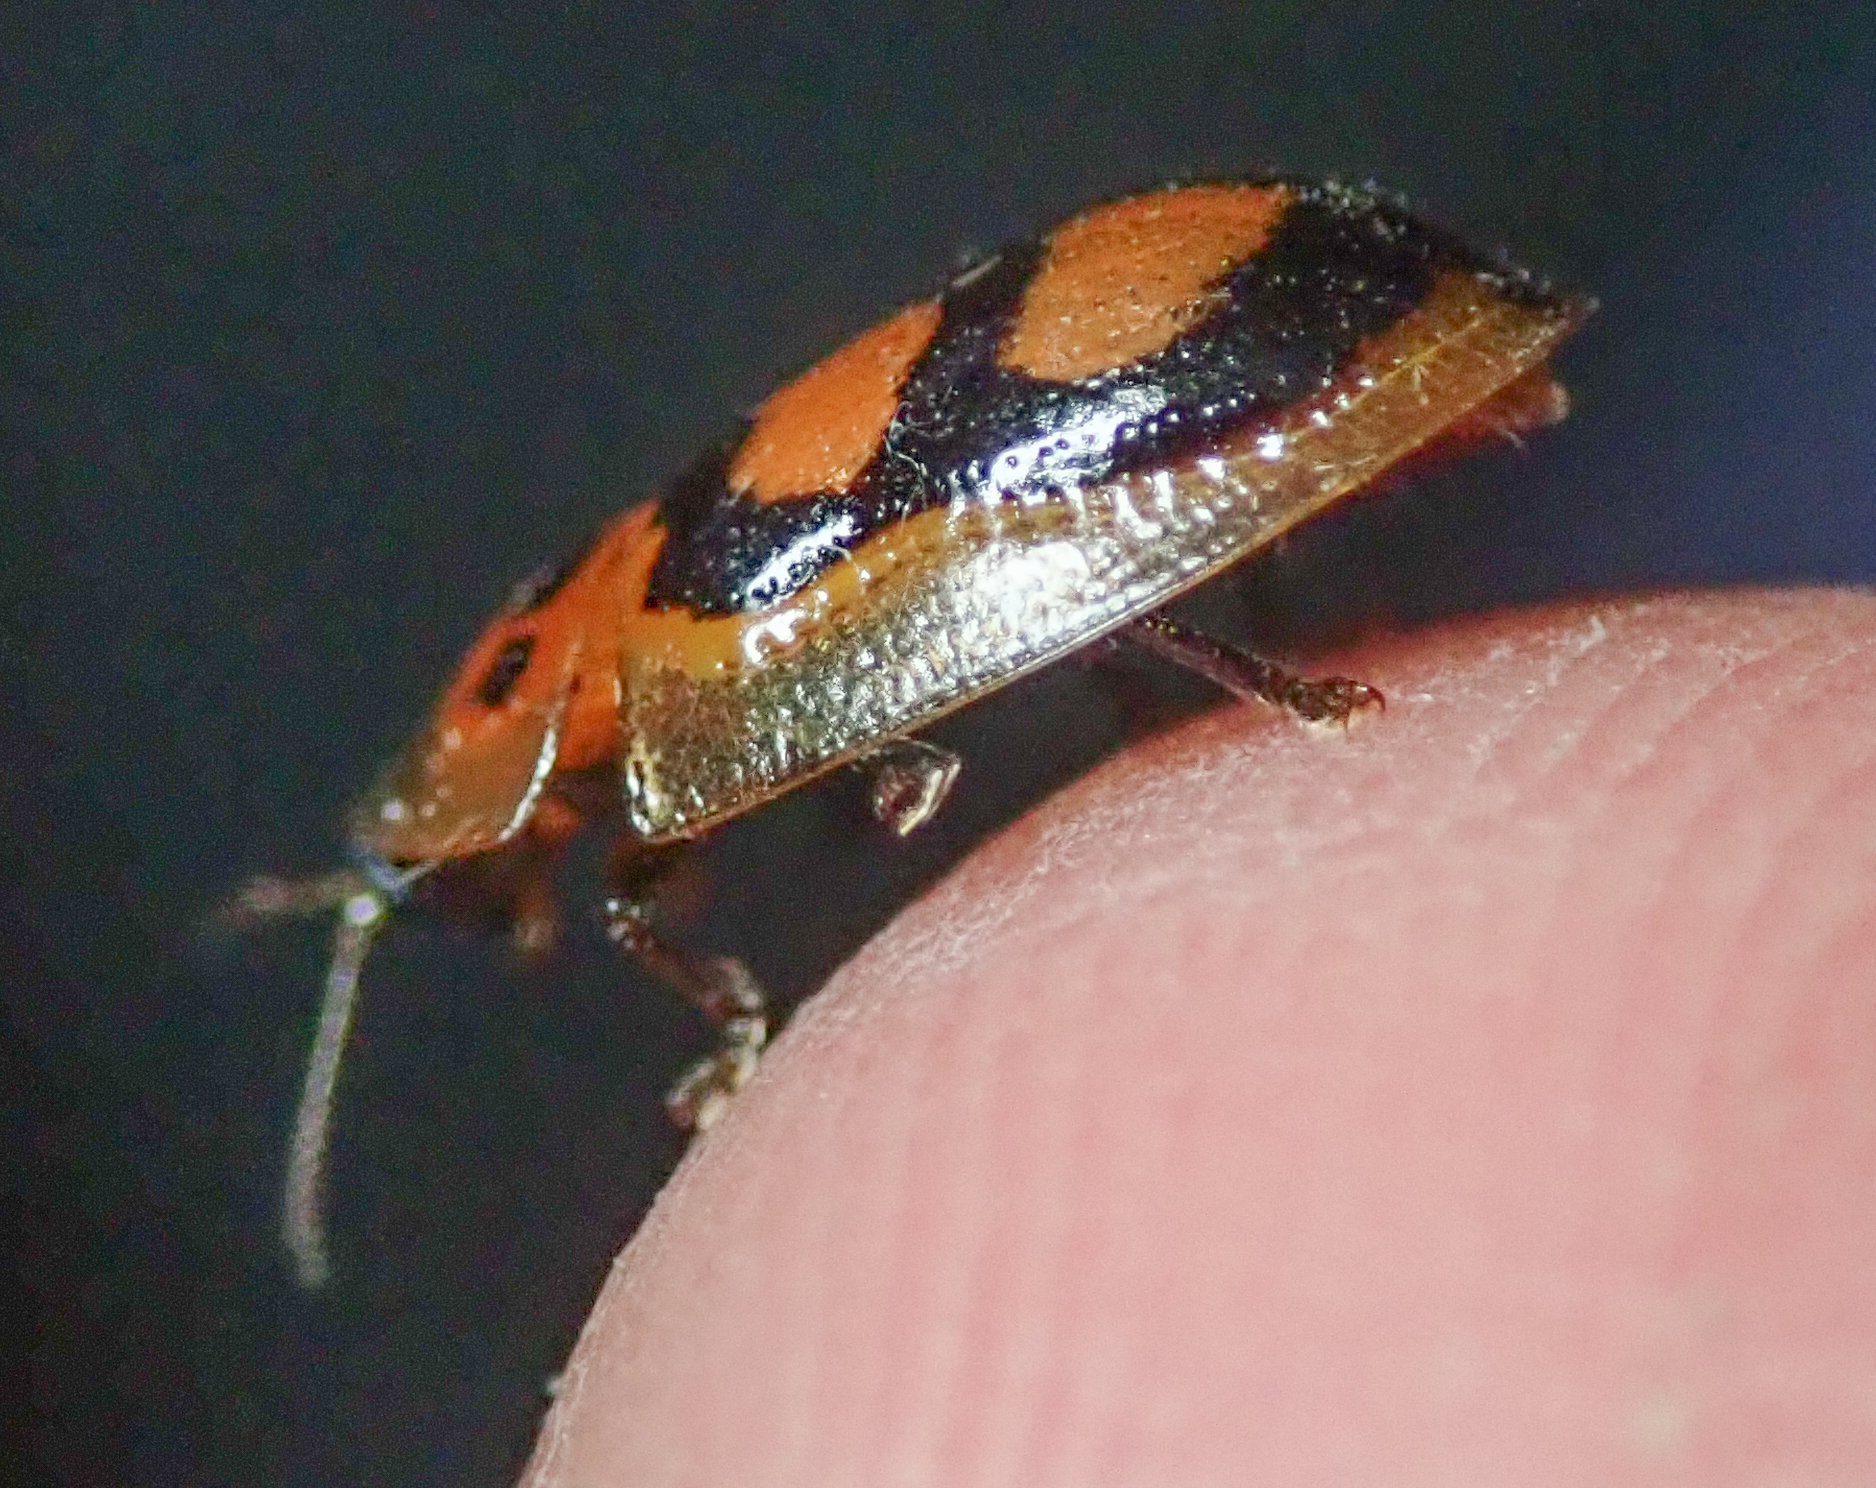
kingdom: Animalia
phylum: Arthropoda
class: Insecta
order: Coleoptera
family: Chrysomelidae
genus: Aspidimorpha
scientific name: Aspidimorpha areata
